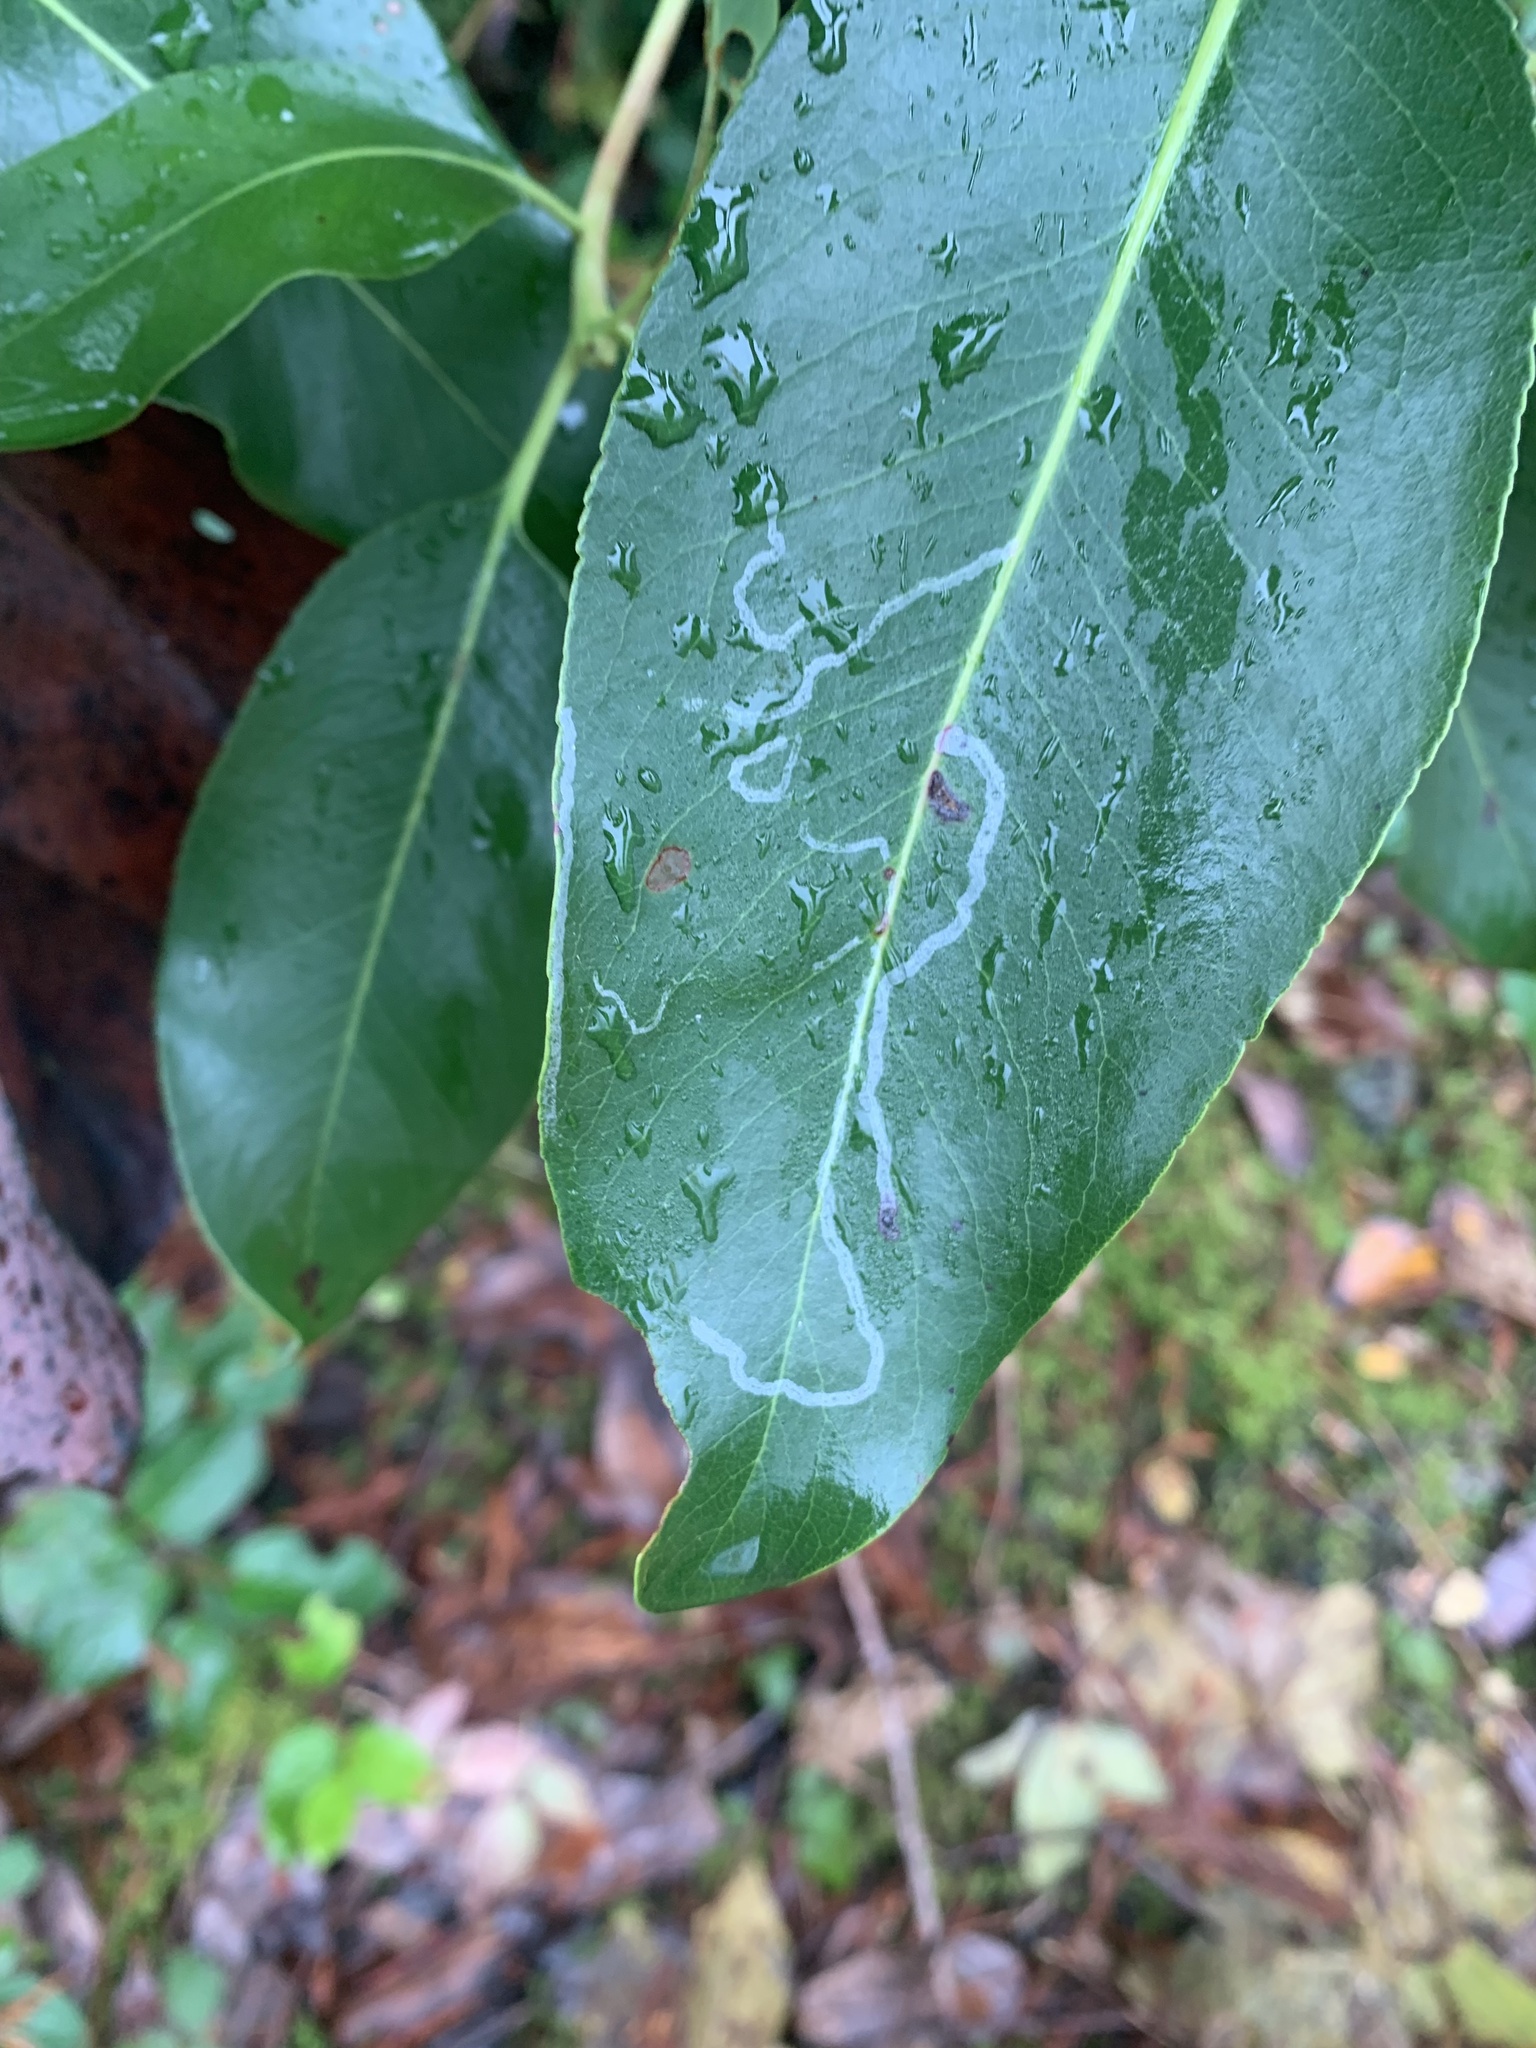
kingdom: Animalia
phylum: Arthropoda
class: Insecta
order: Lepidoptera
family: Gracillariidae
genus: Marmara
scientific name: Marmara arbutiella
